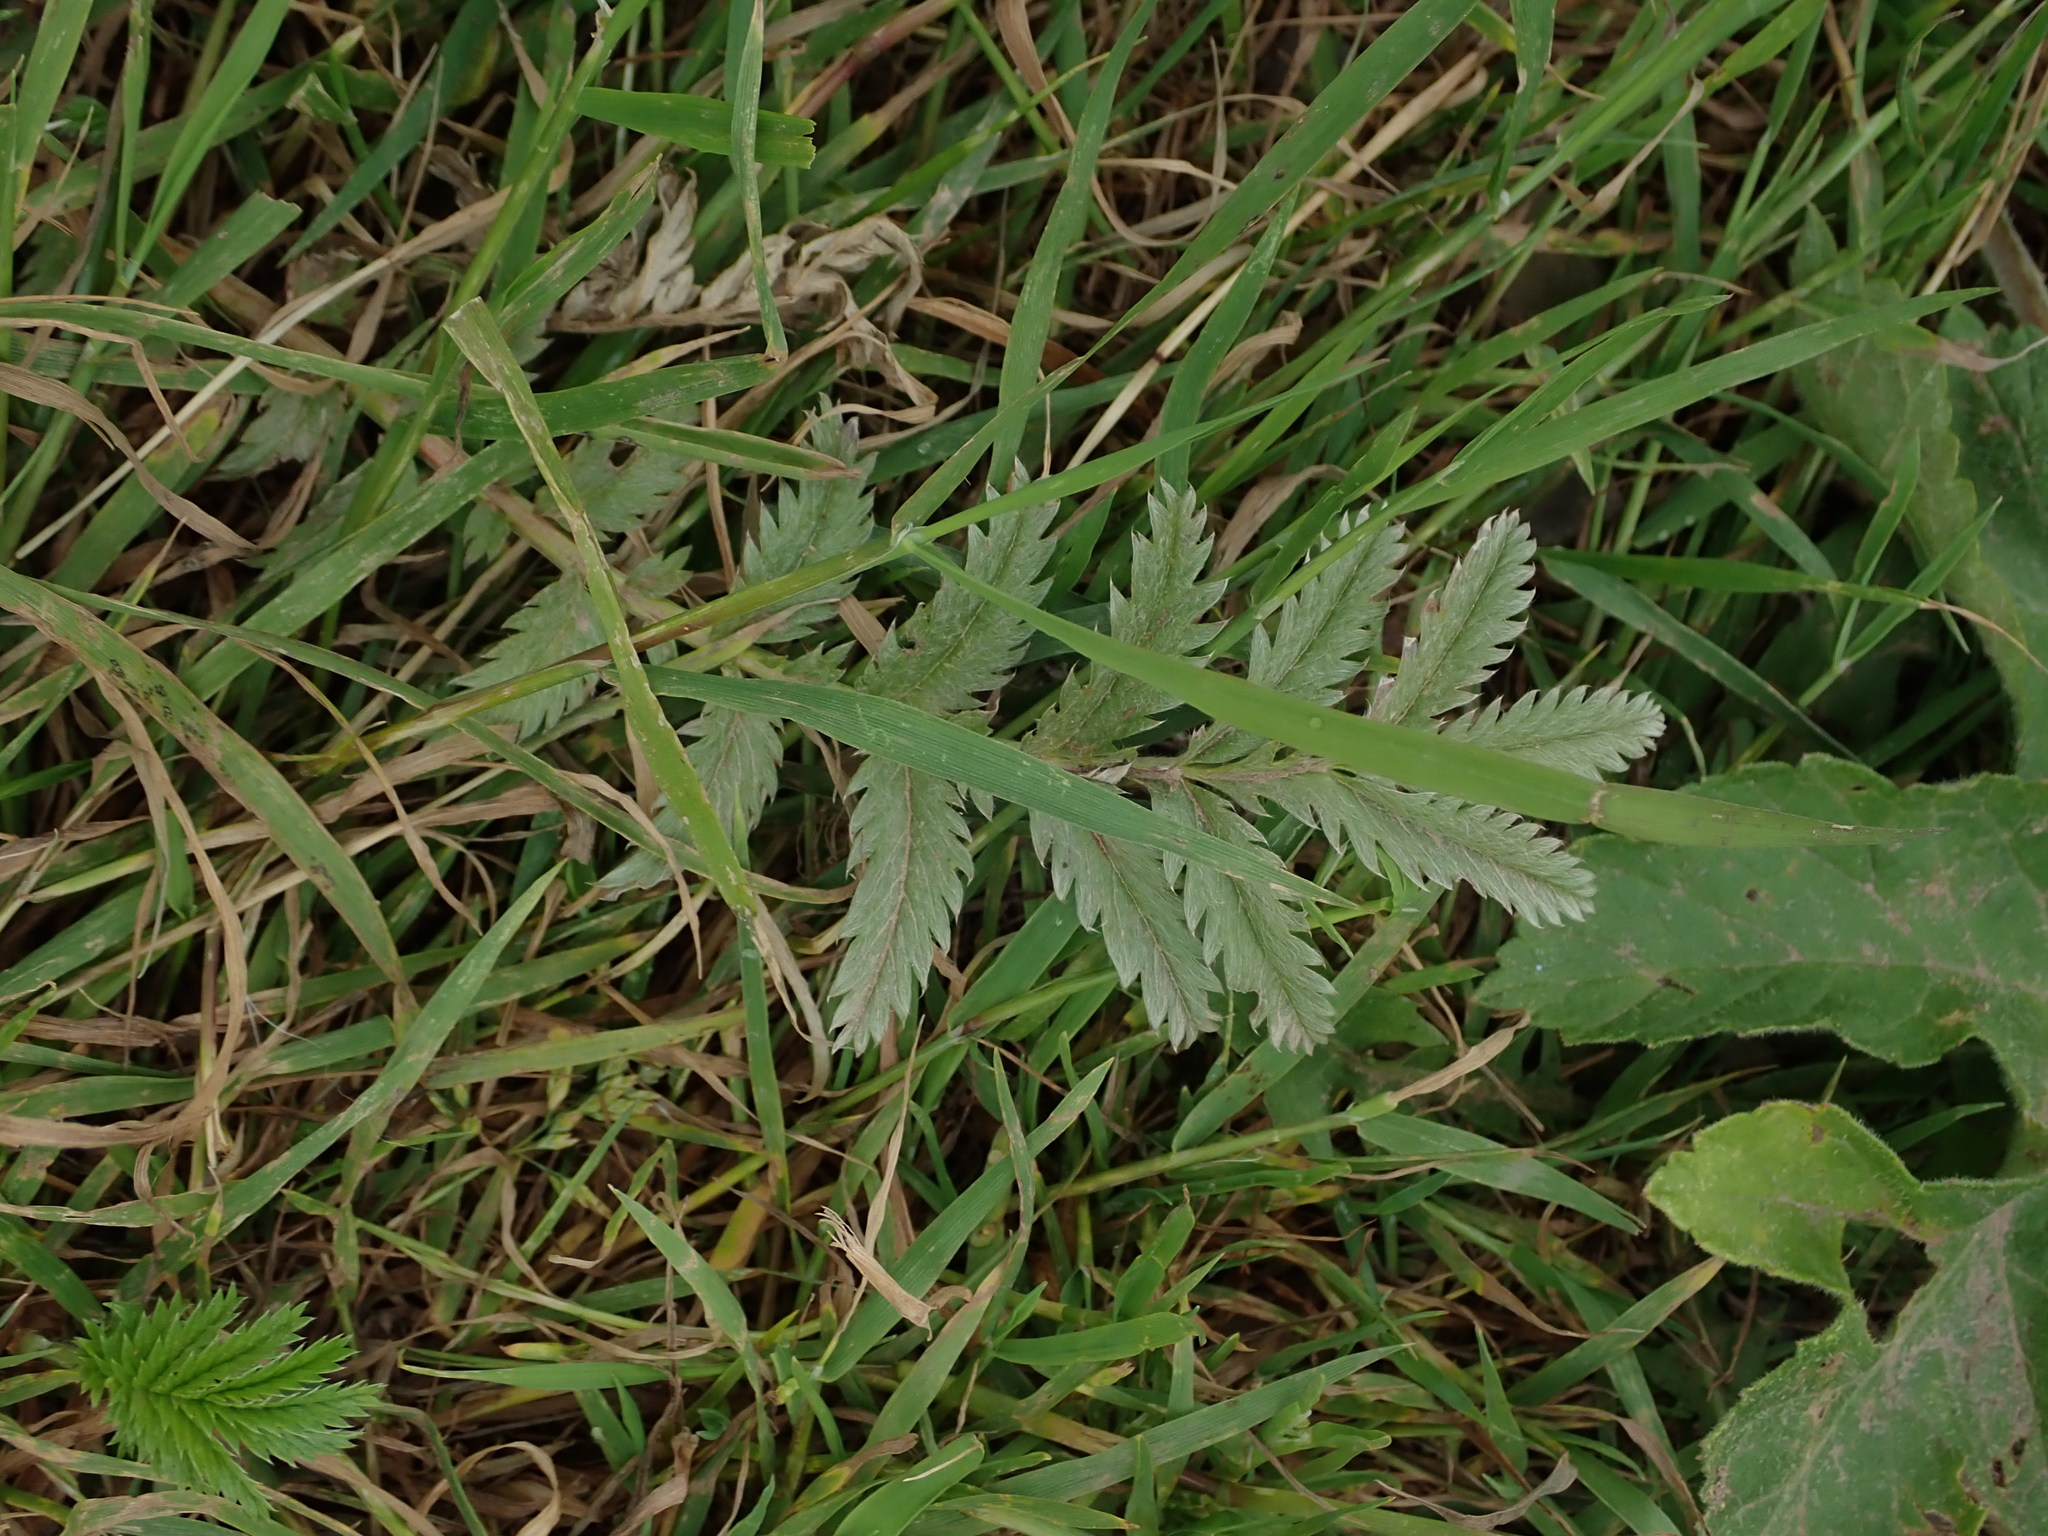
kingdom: Plantae
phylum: Tracheophyta
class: Magnoliopsida
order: Rosales
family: Rosaceae
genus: Argentina
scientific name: Argentina anserina
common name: Common silverweed
